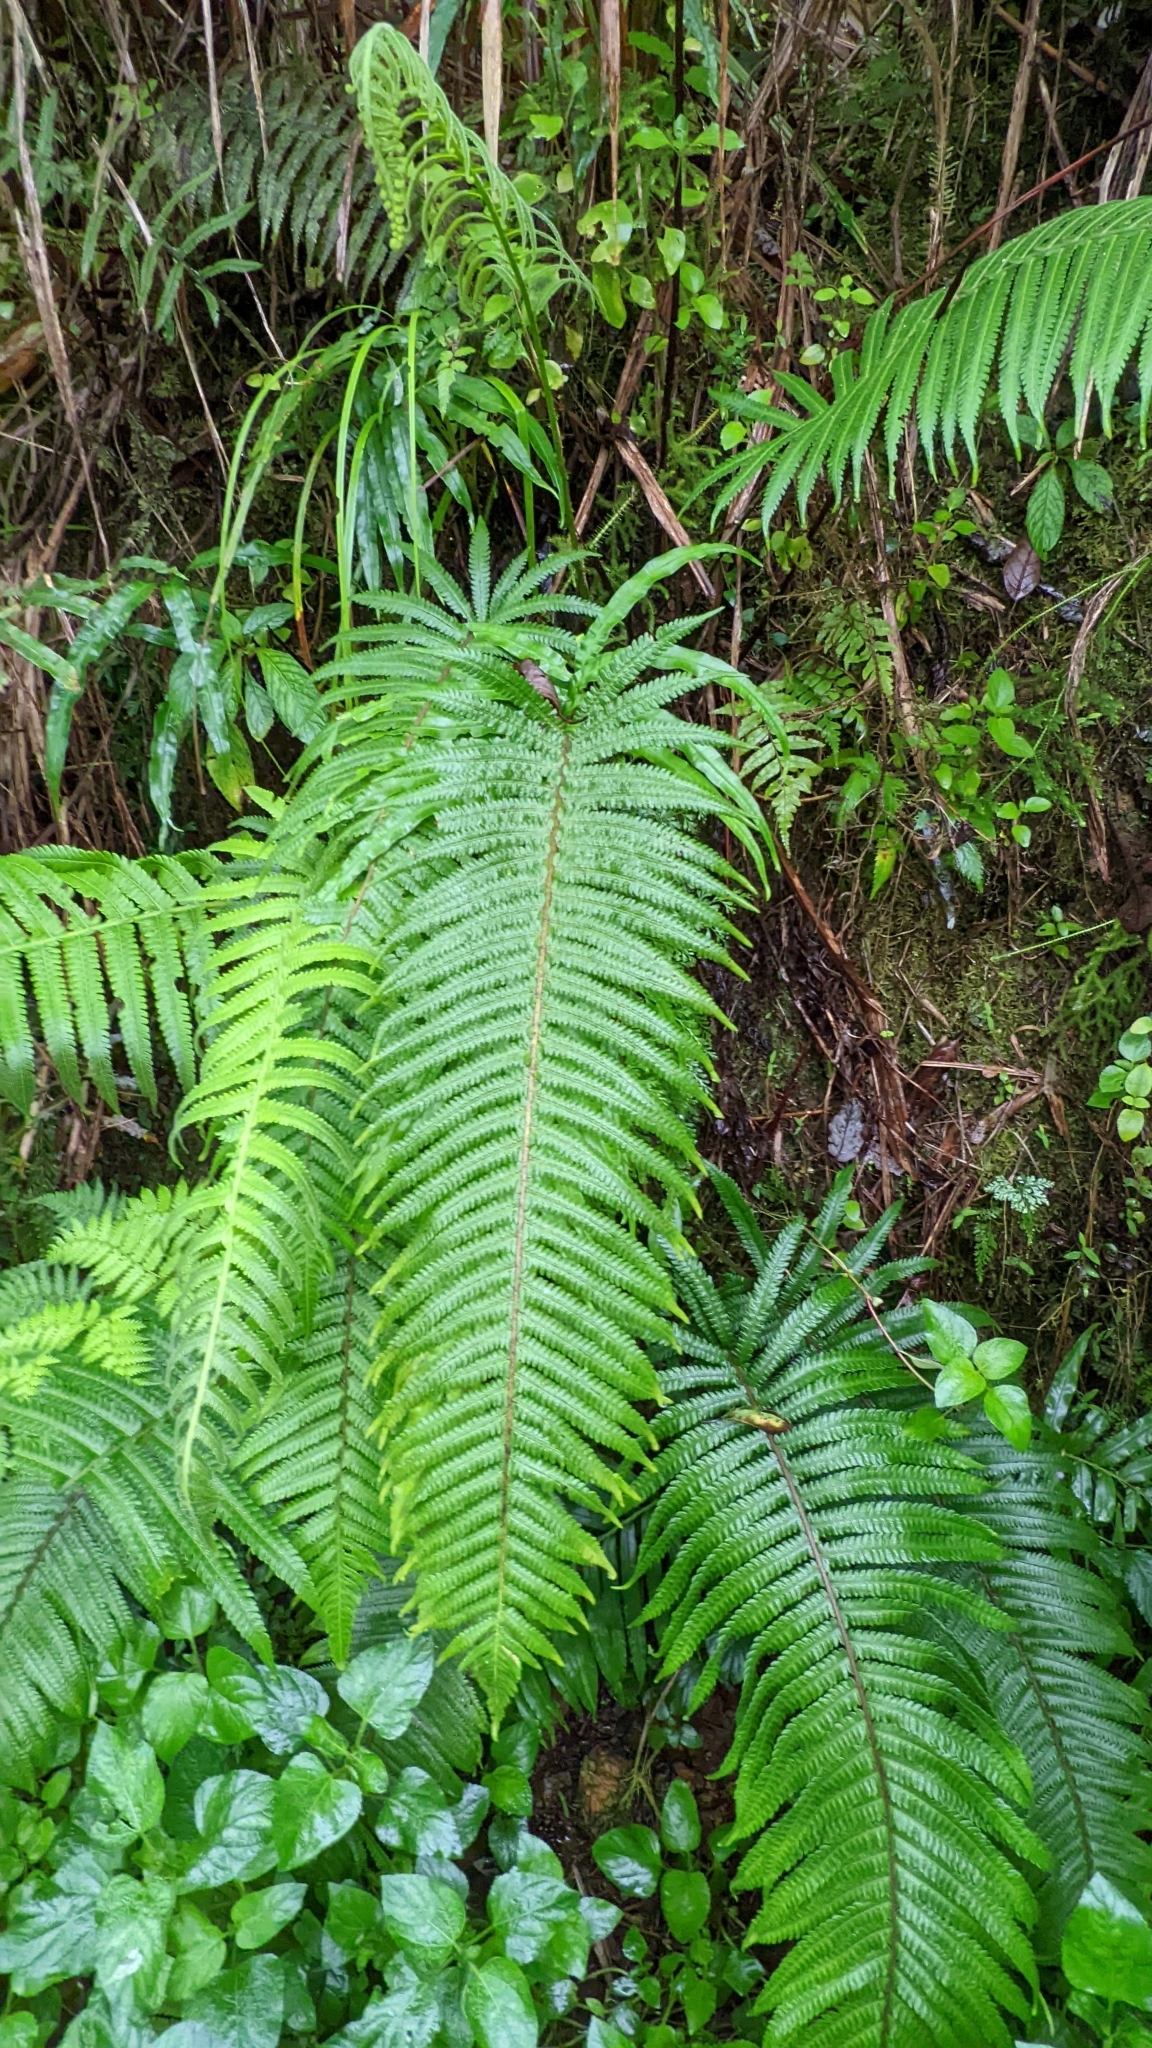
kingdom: Plantae
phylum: Tracheophyta
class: Polypodiopsida
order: Polypodiales
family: Thelypteridaceae
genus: Sphaerostephanos
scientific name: Sphaerostephanos taiwanensis
